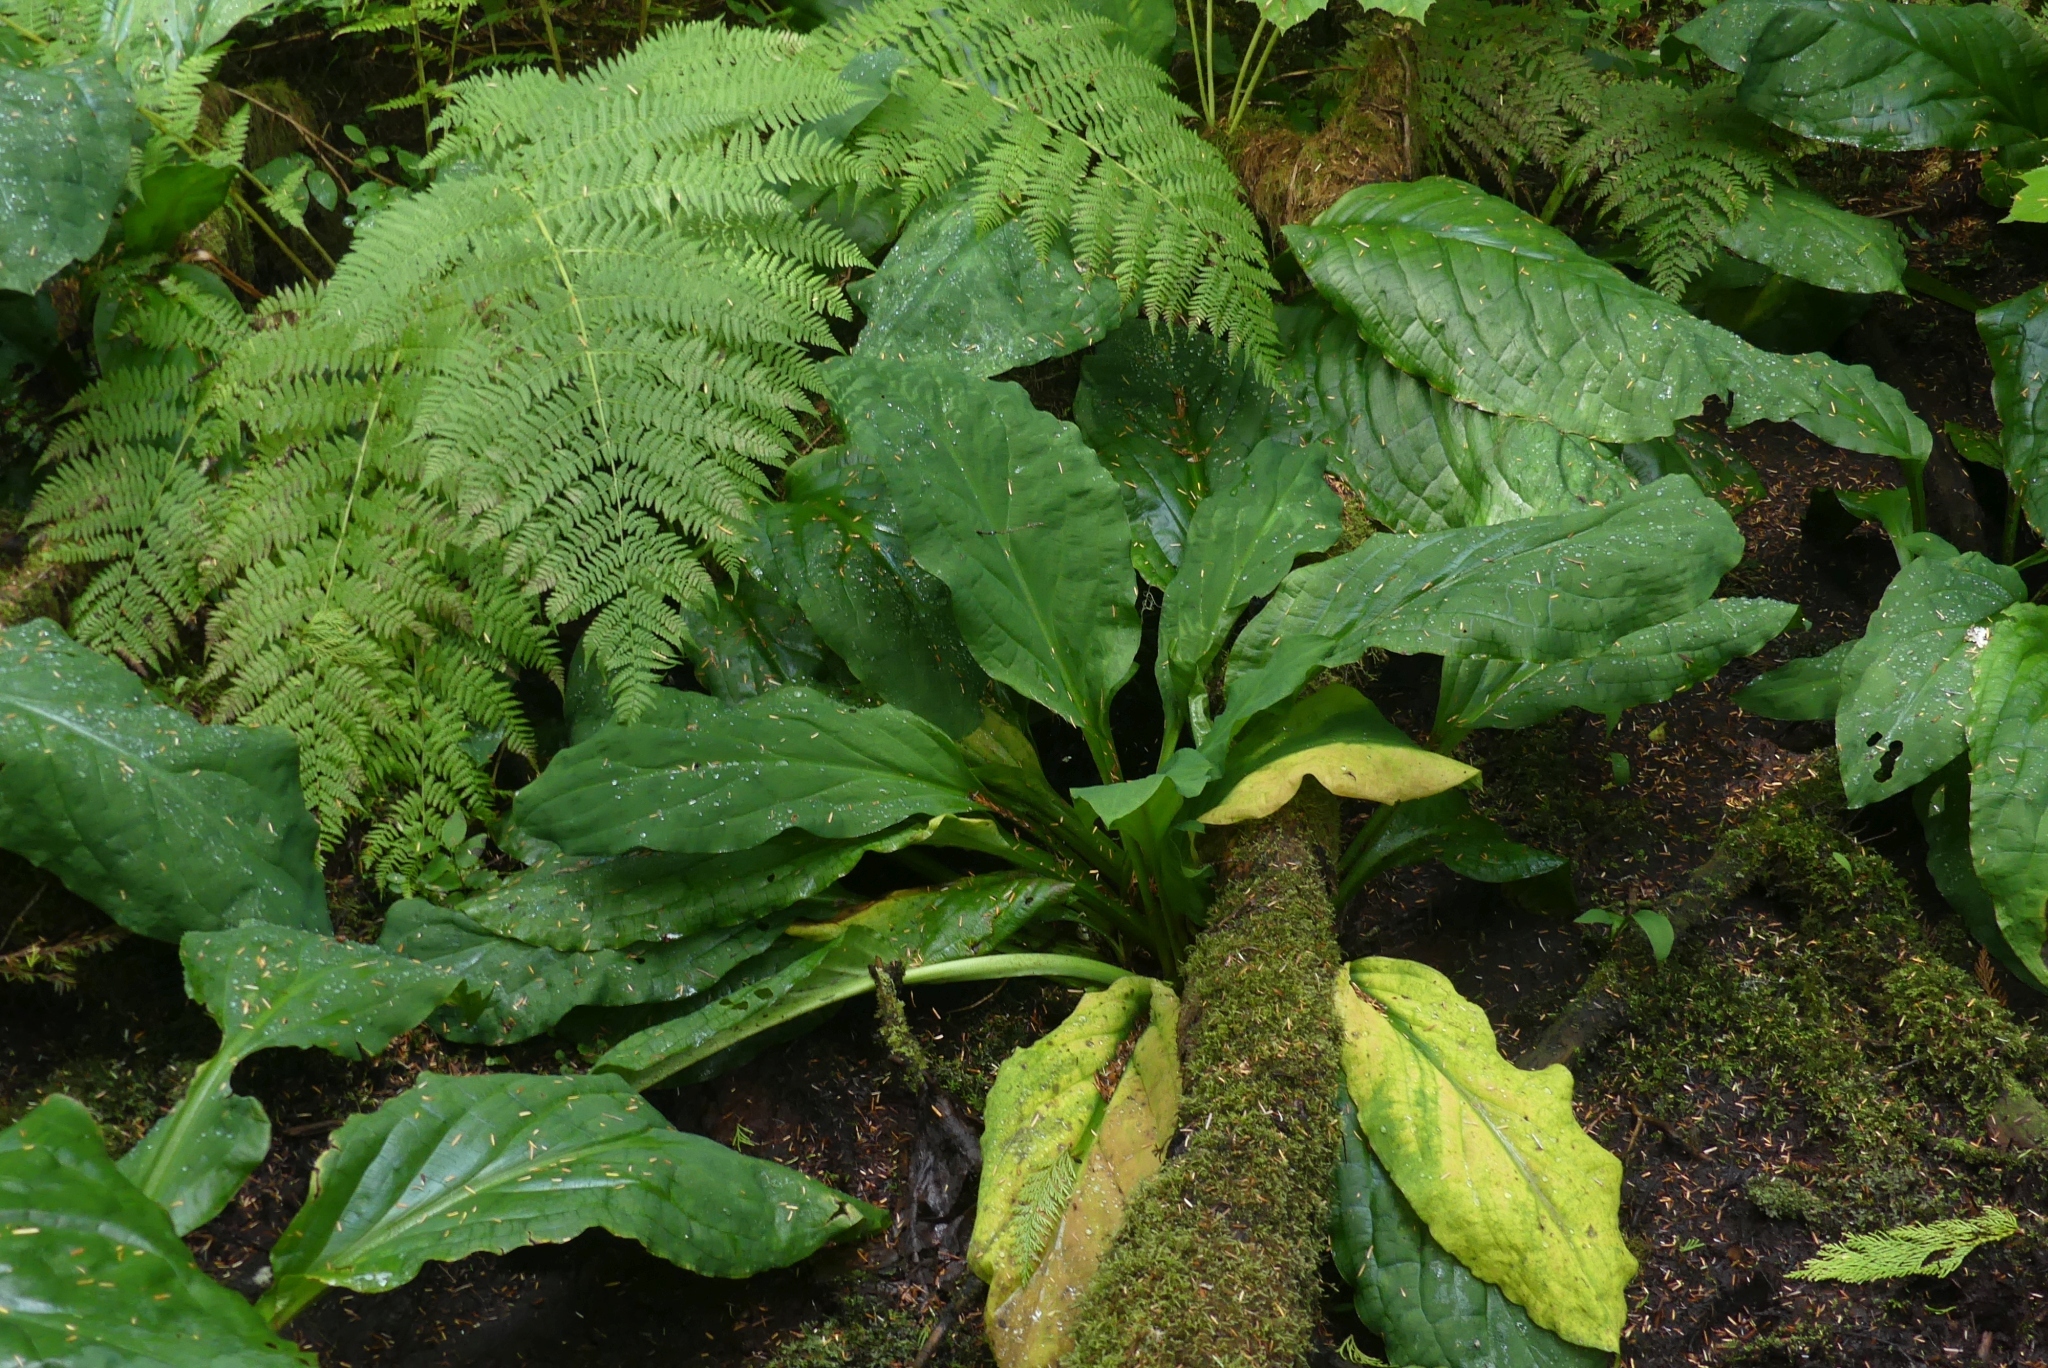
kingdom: Plantae
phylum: Tracheophyta
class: Liliopsida
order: Alismatales
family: Araceae
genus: Lysichiton
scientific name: Lysichiton americanus
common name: American skunk cabbage
